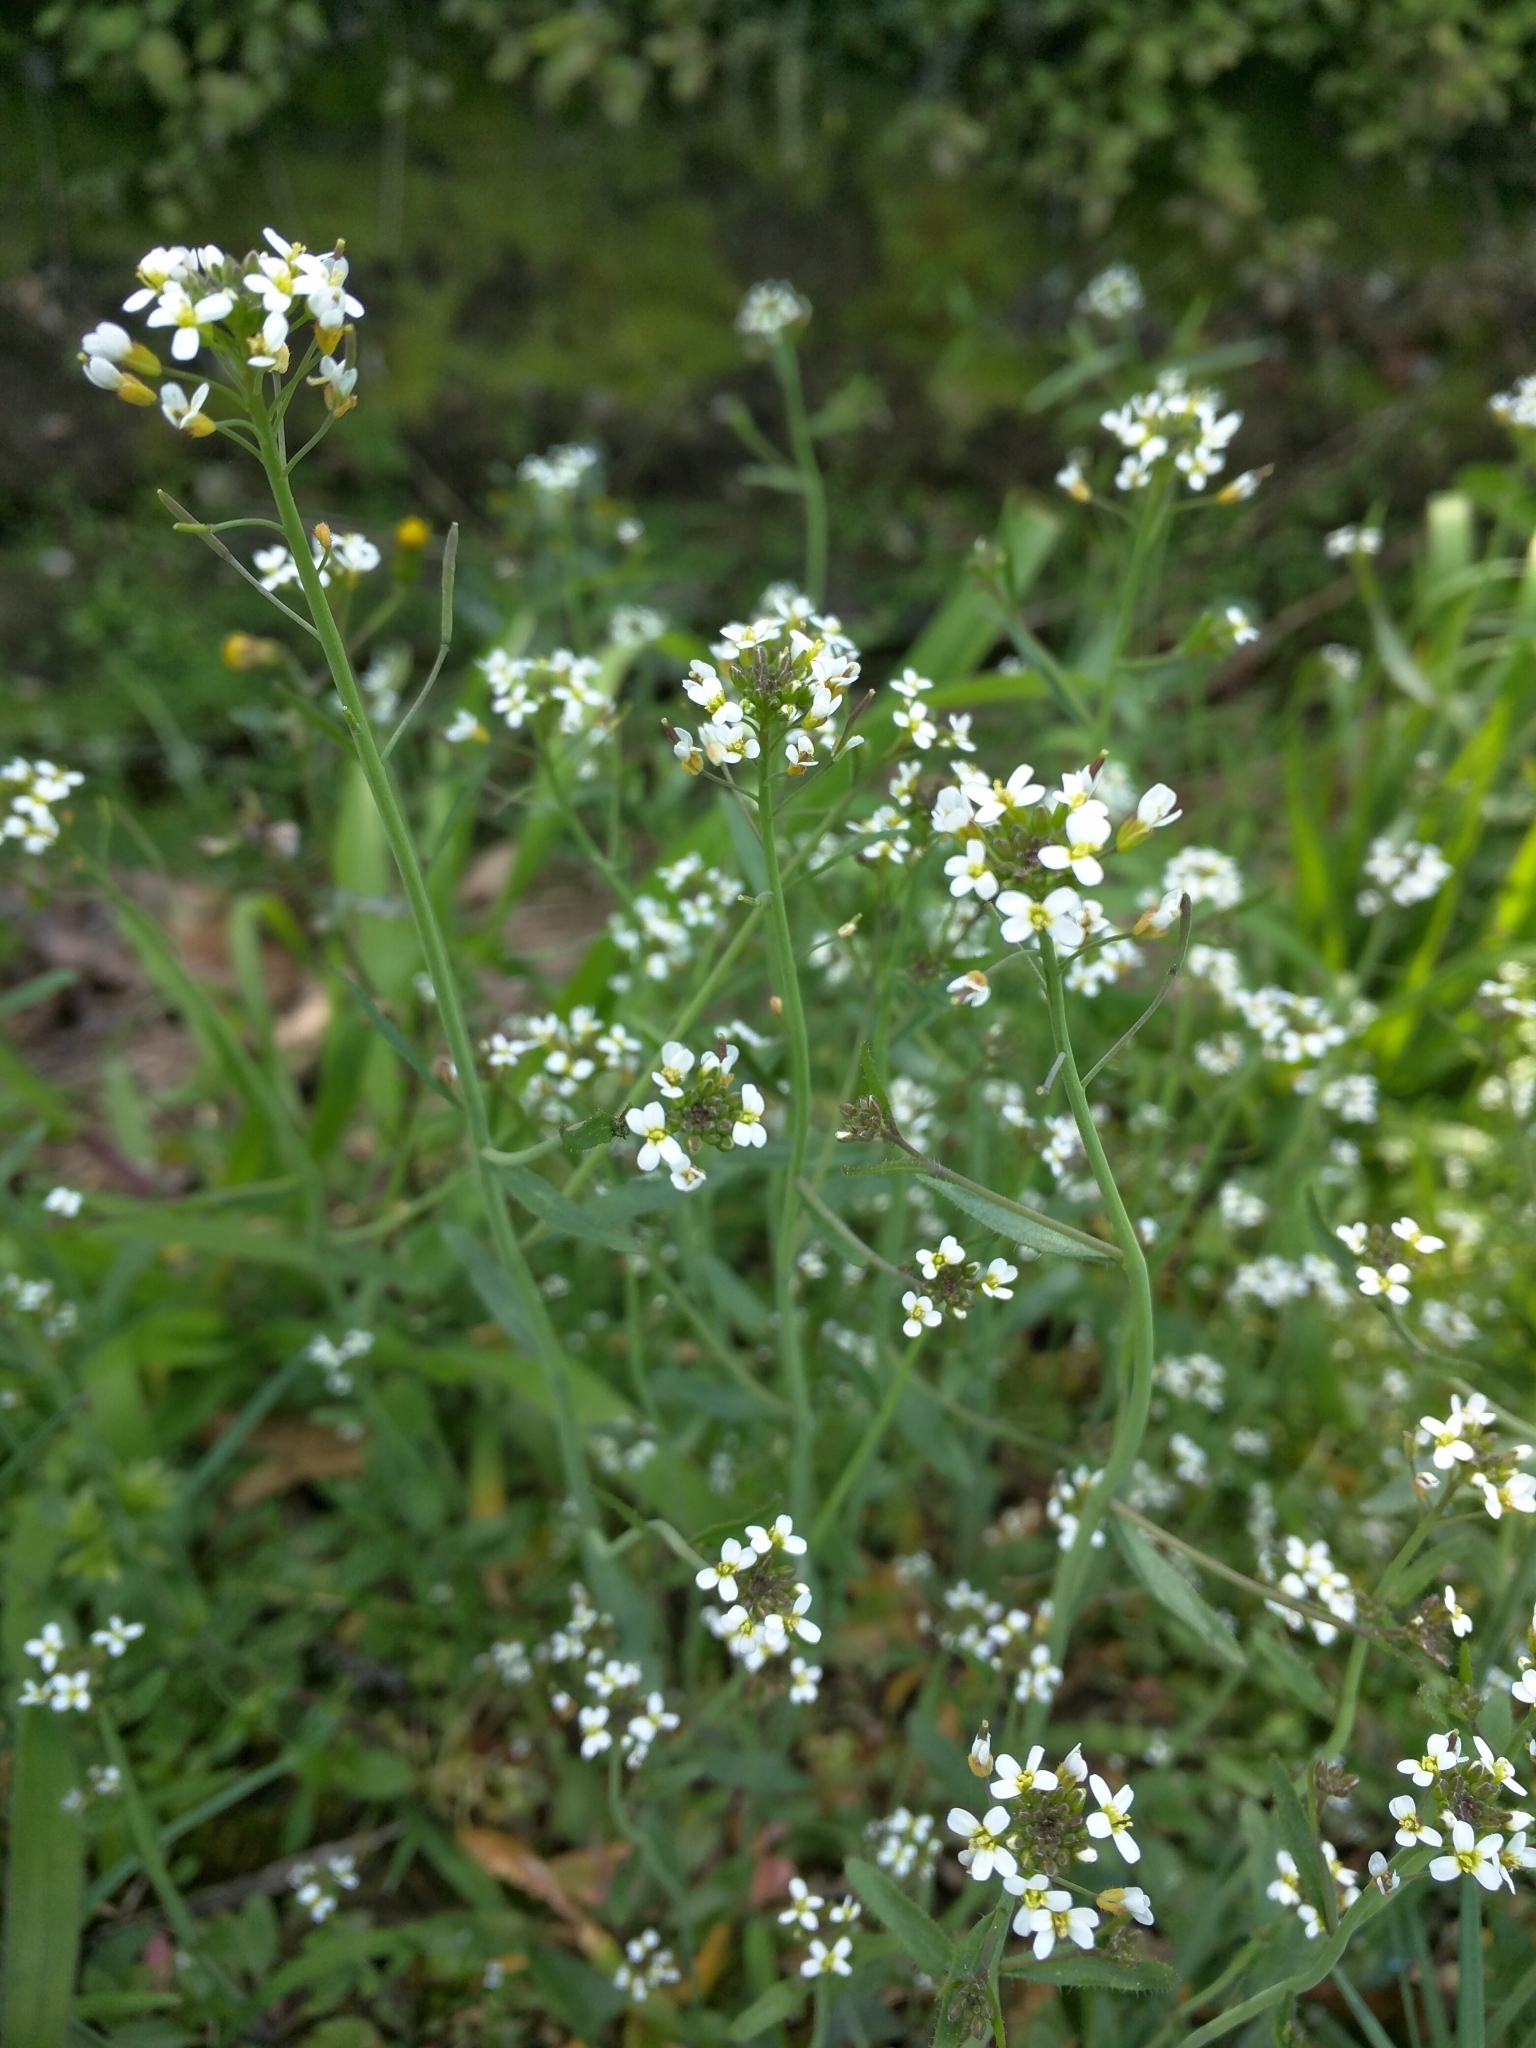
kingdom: Plantae
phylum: Tracheophyta
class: Magnoliopsida
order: Brassicales
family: Brassicaceae
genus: Arabidopsis
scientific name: Arabidopsis thaliana
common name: Thale cress
